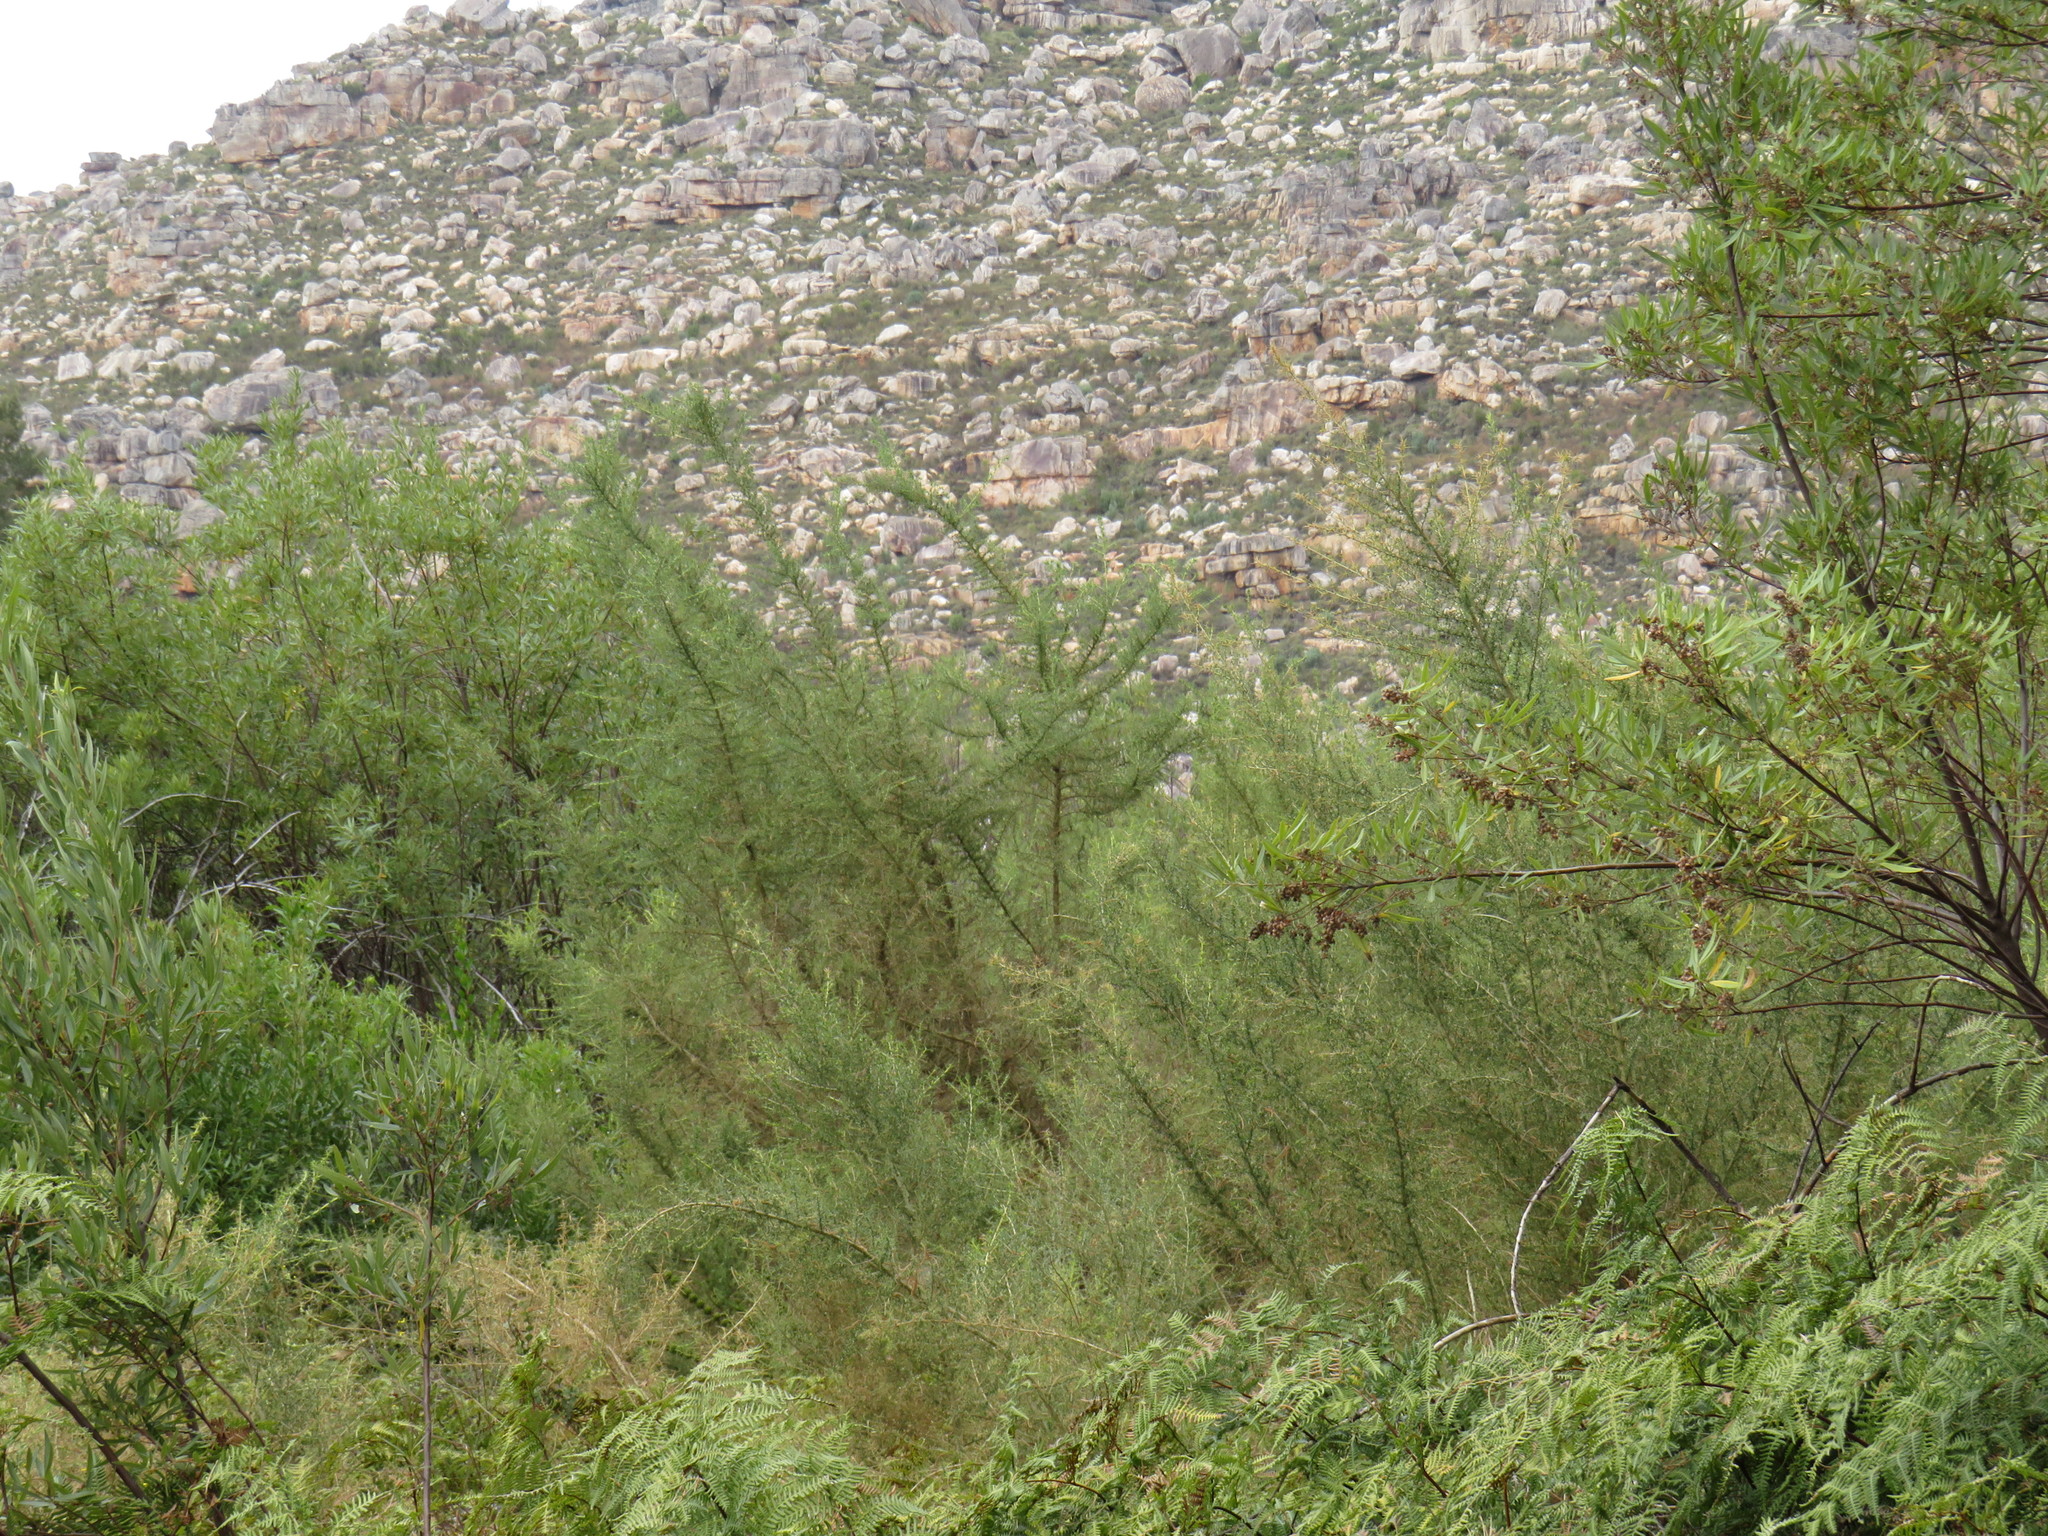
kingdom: Plantae
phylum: Tracheophyta
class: Magnoliopsida
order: Fabales
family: Fabaceae
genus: Aspalathus
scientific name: Aspalathus ulicina
